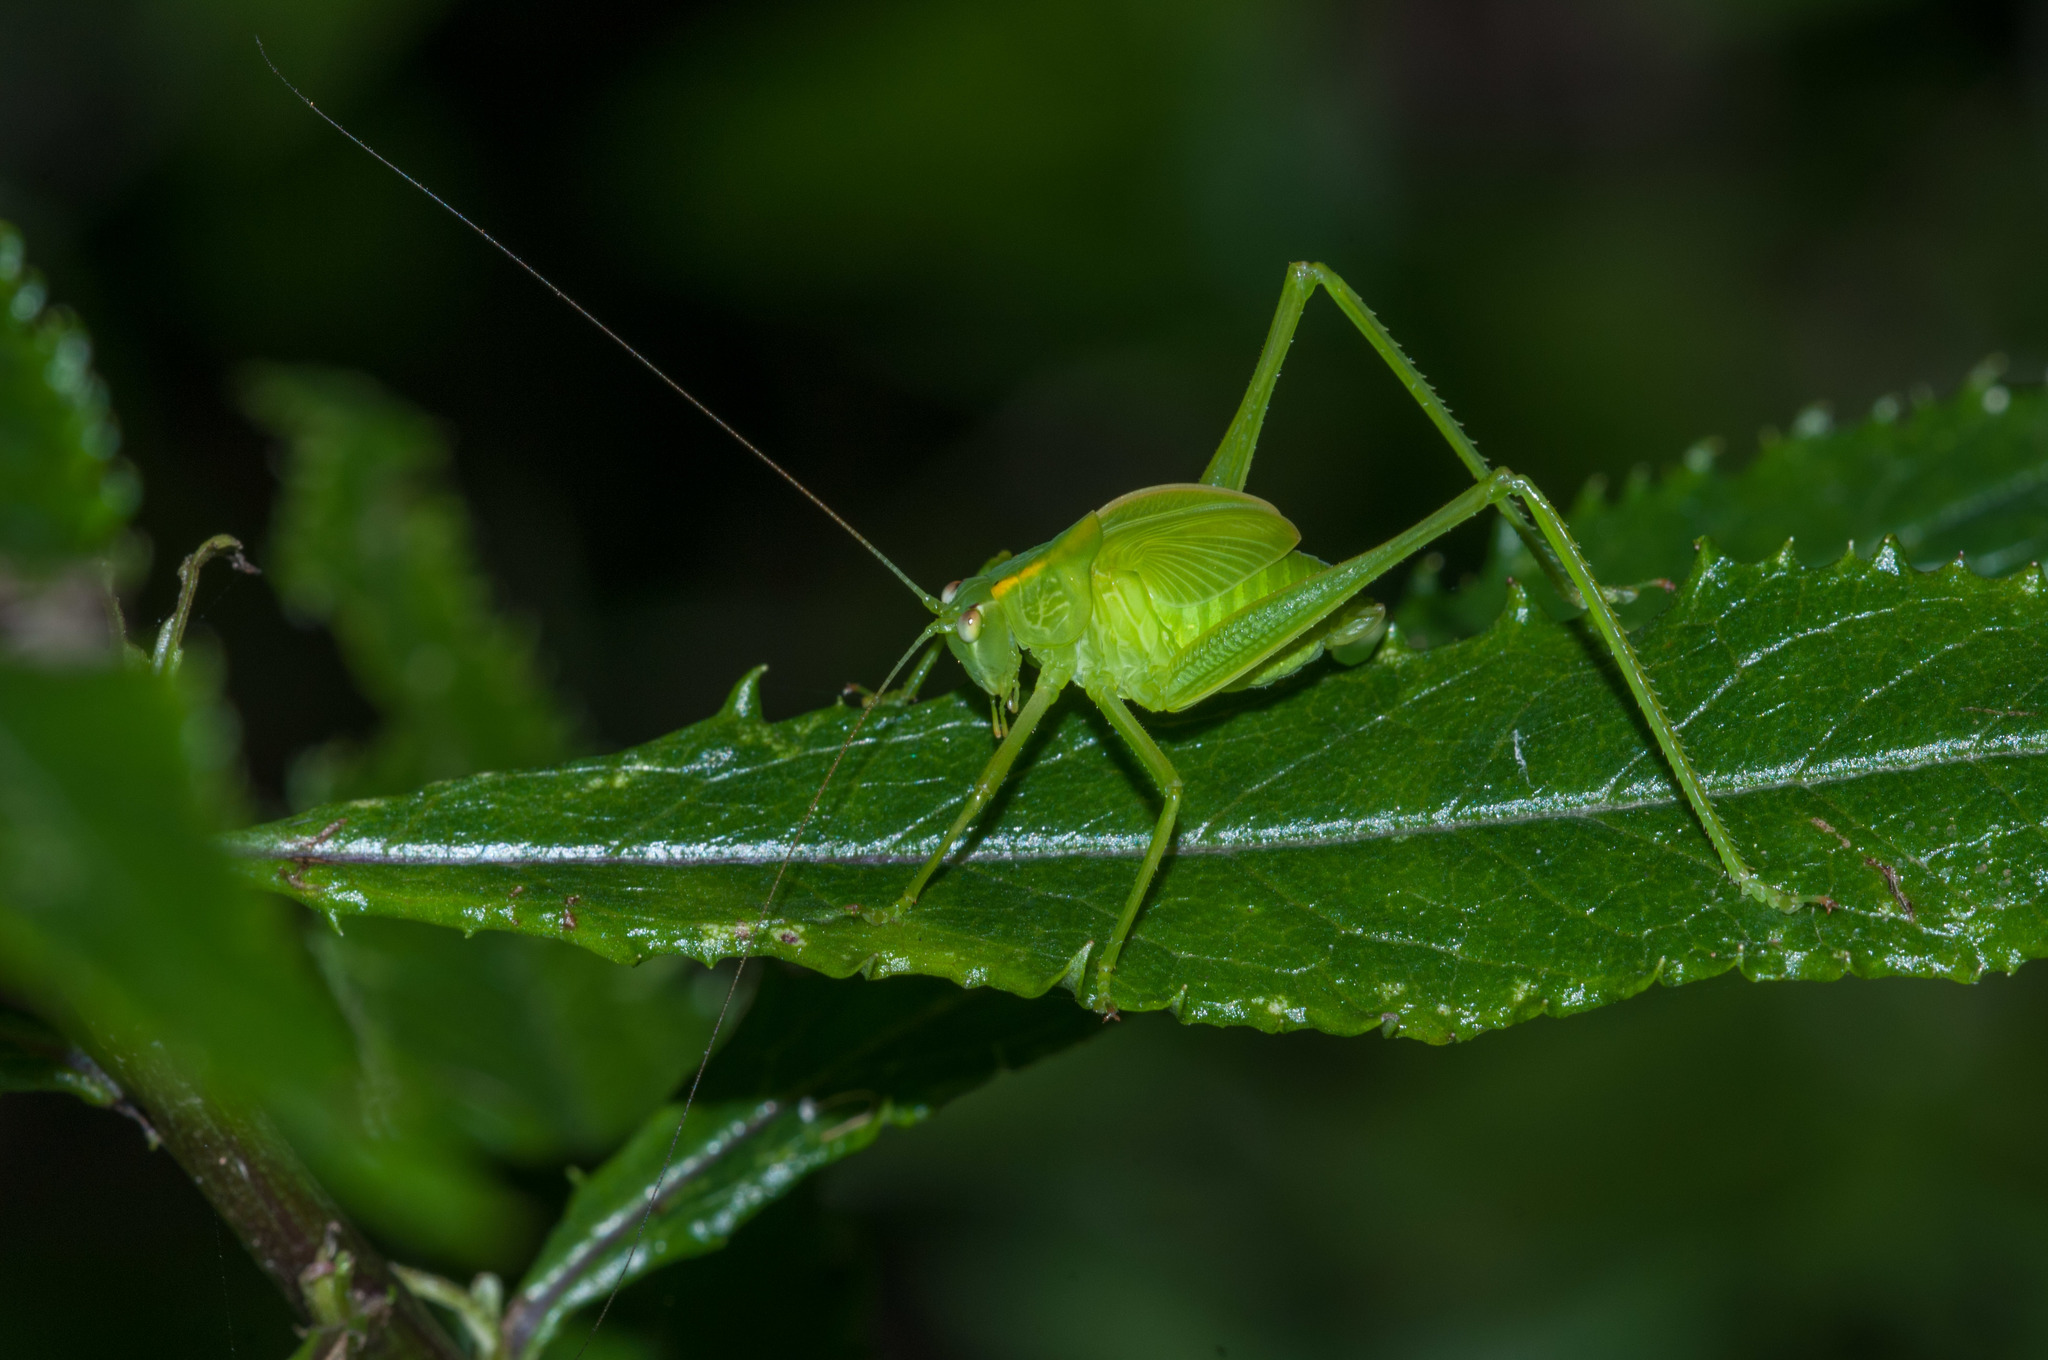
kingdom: Animalia
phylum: Arthropoda
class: Insecta
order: Orthoptera
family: Tettigoniidae
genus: Caedicia
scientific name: Caedicia simplex
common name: Common garden katydid
